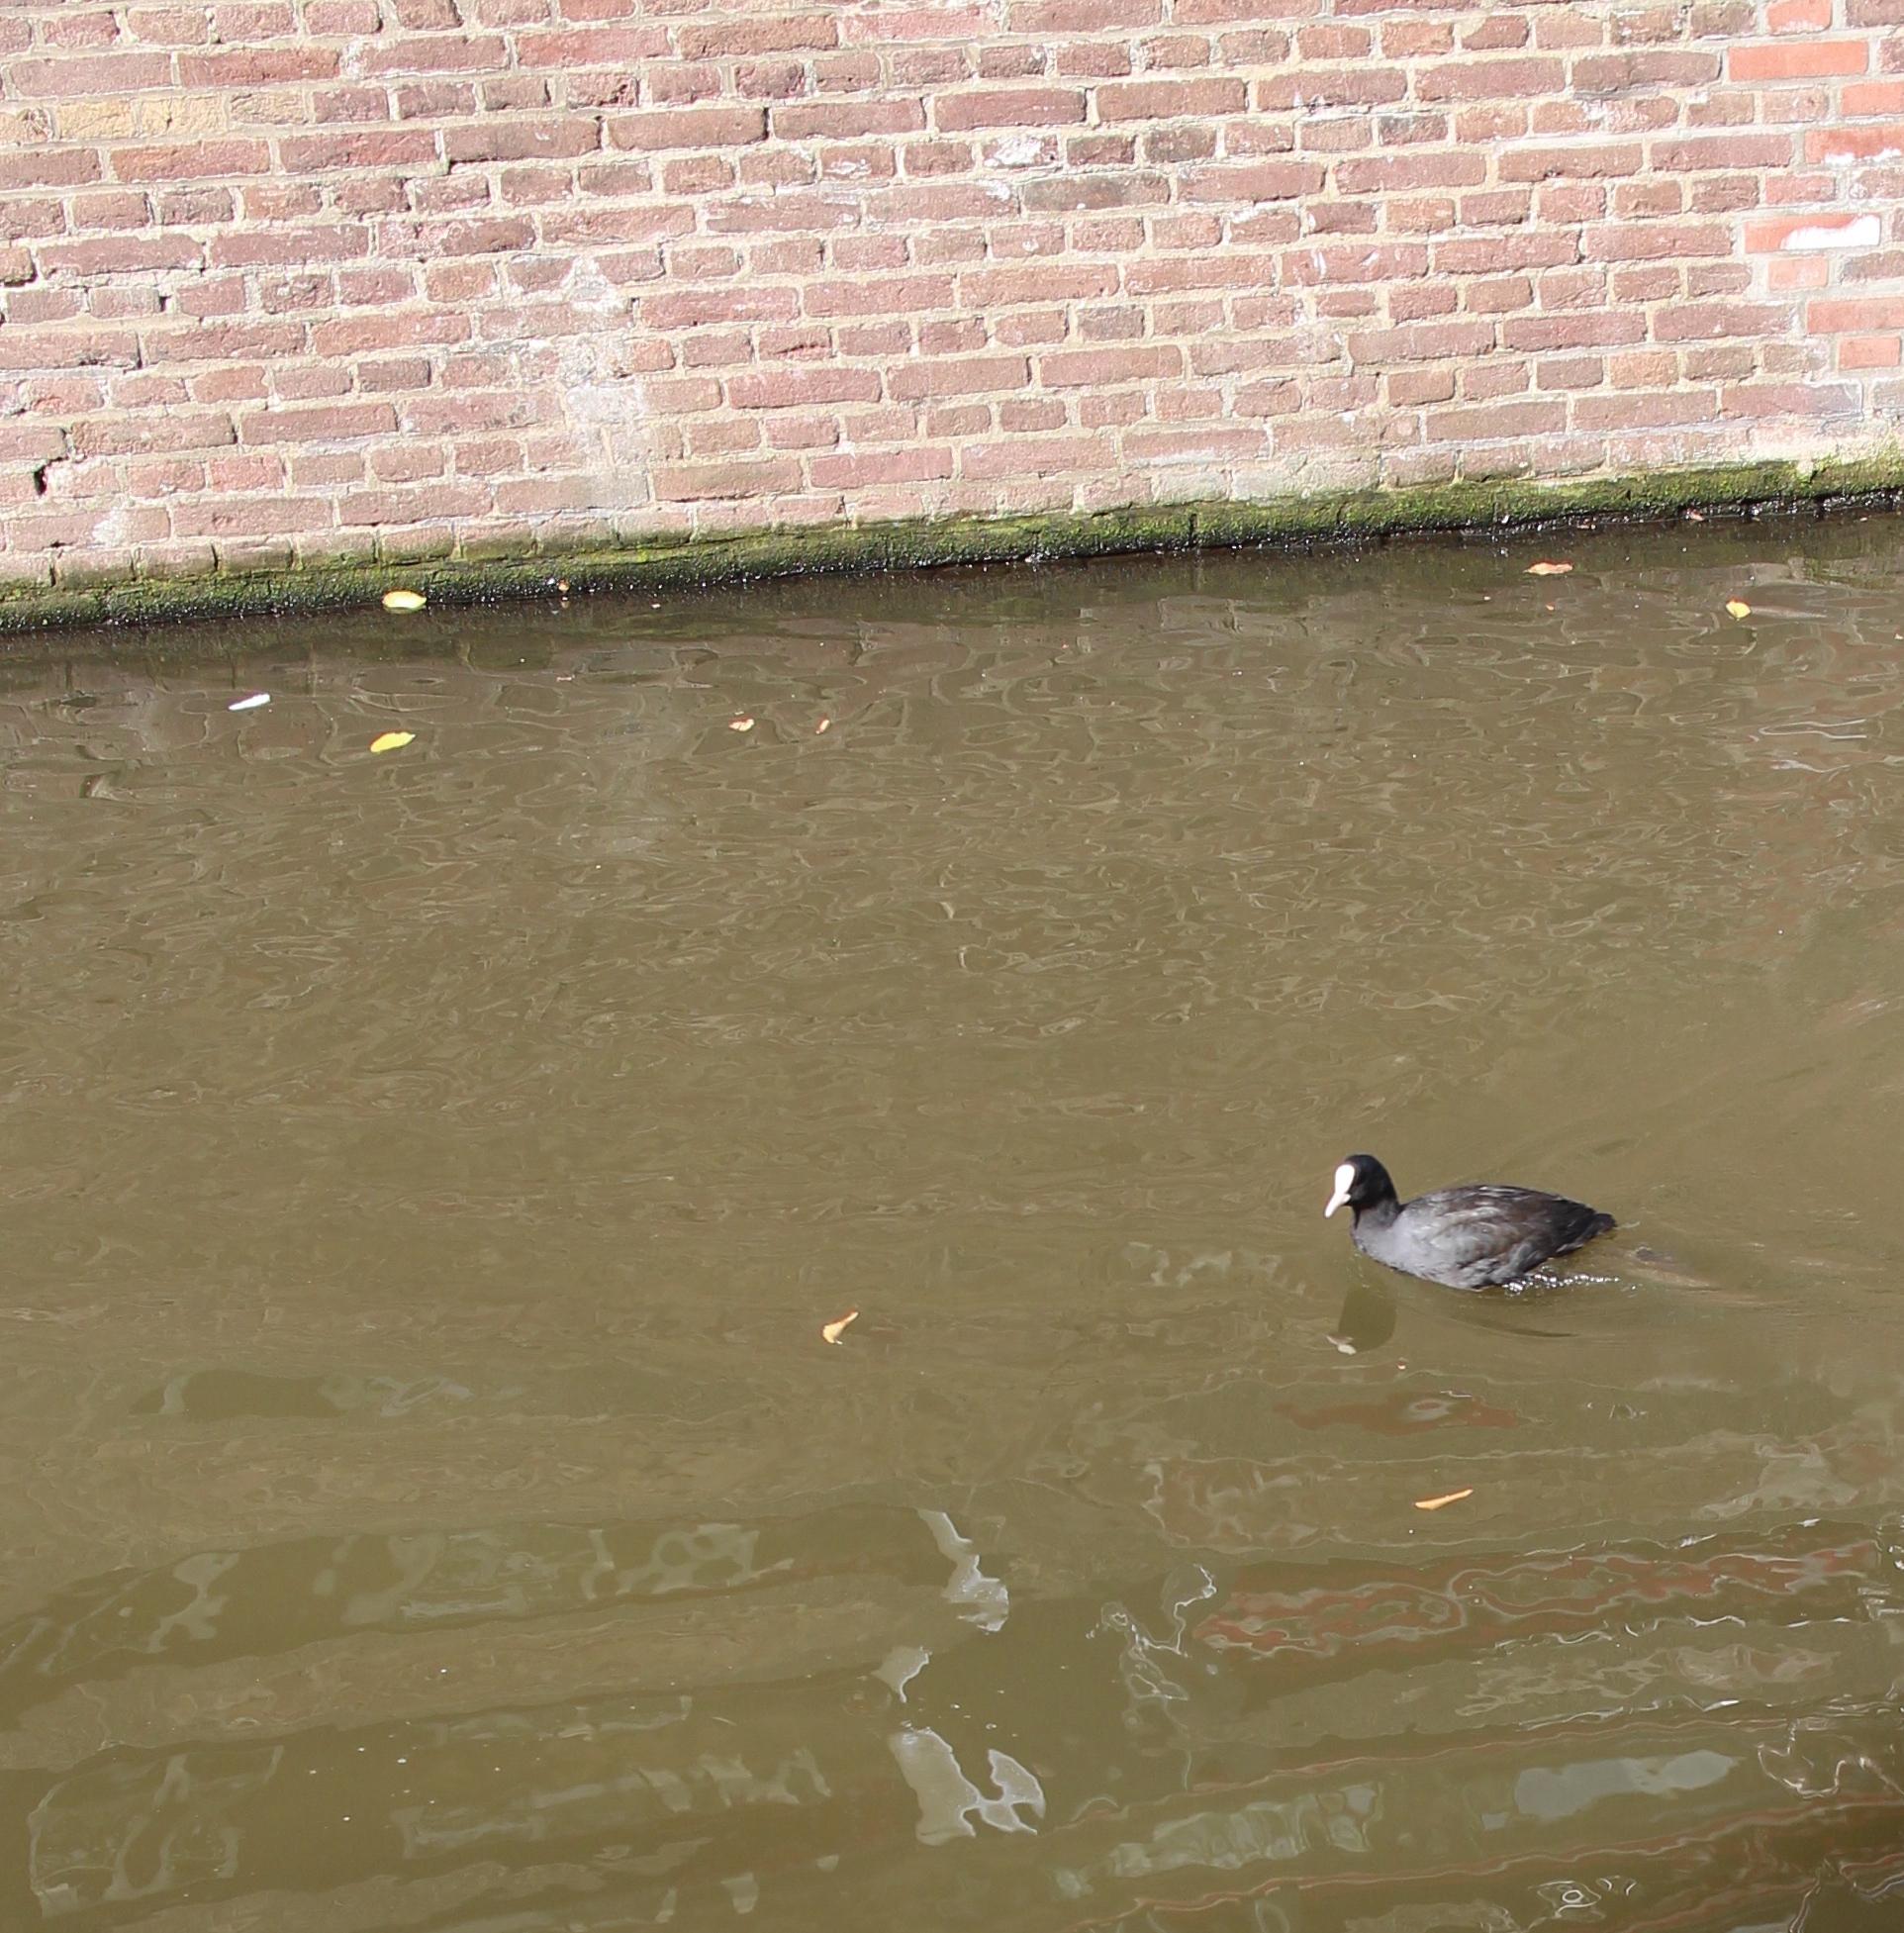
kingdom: Animalia
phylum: Chordata
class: Aves
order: Gruiformes
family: Rallidae
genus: Fulica
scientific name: Fulica atra
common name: Eurasian coot
